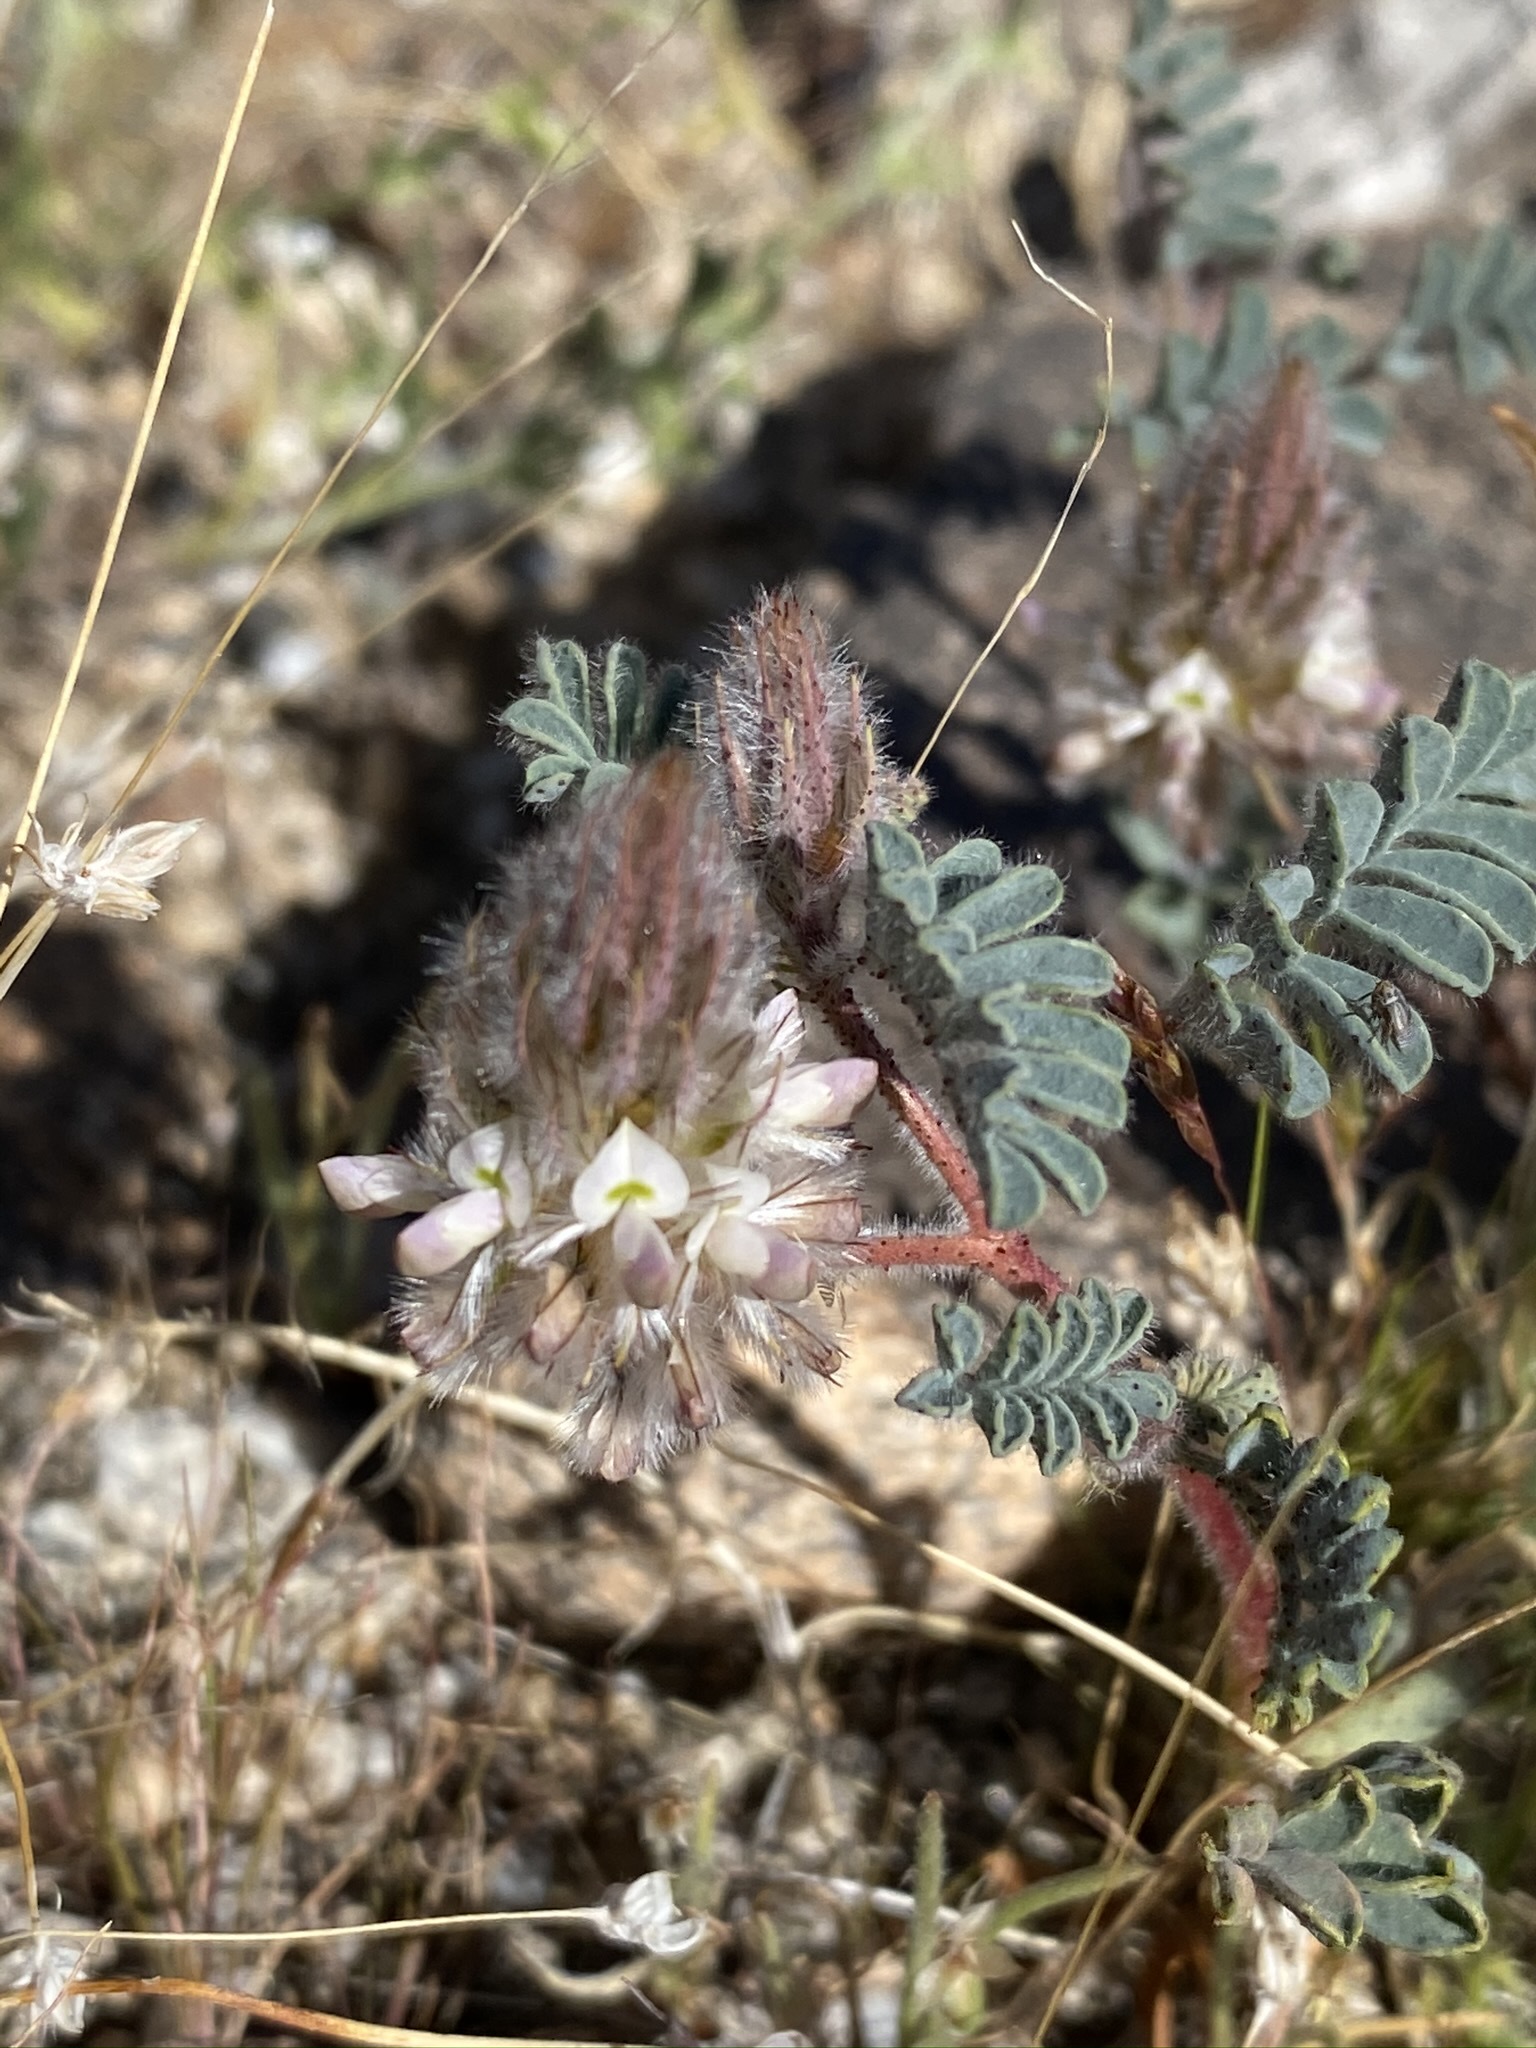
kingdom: Plantae
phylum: Tracheophyta
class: Magnoliopsida
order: Fabales
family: Fabaceae
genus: Dalea
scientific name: Dalea mollis
